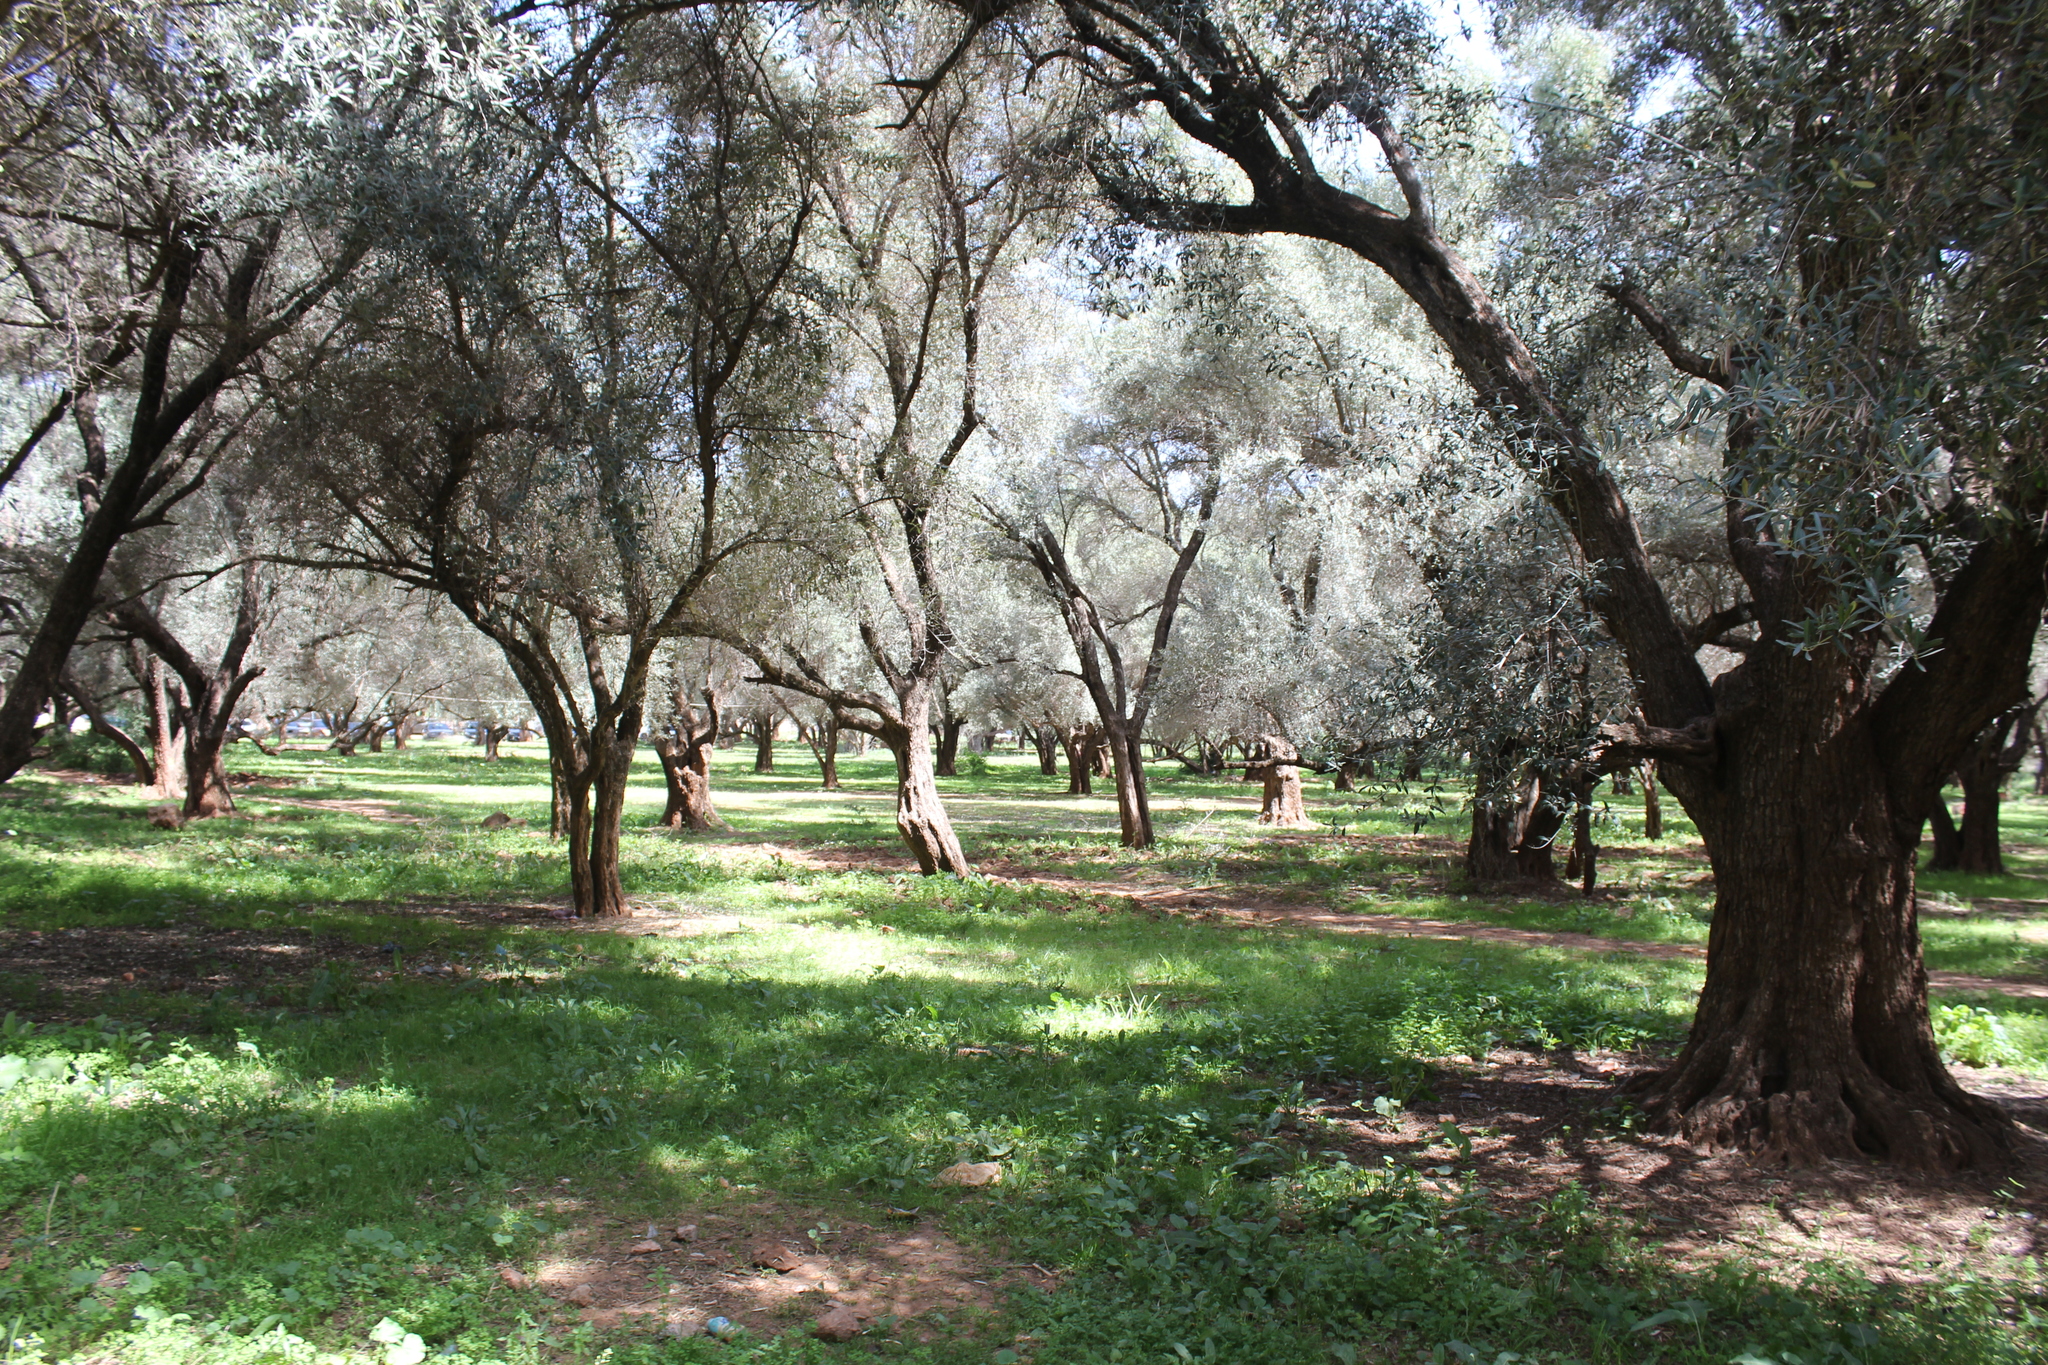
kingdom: Plantae
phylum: Tracheophyta
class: Magnoliopsida
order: Lamiales
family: Oleaceae
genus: Olea
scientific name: Olea europaea
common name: Olive
